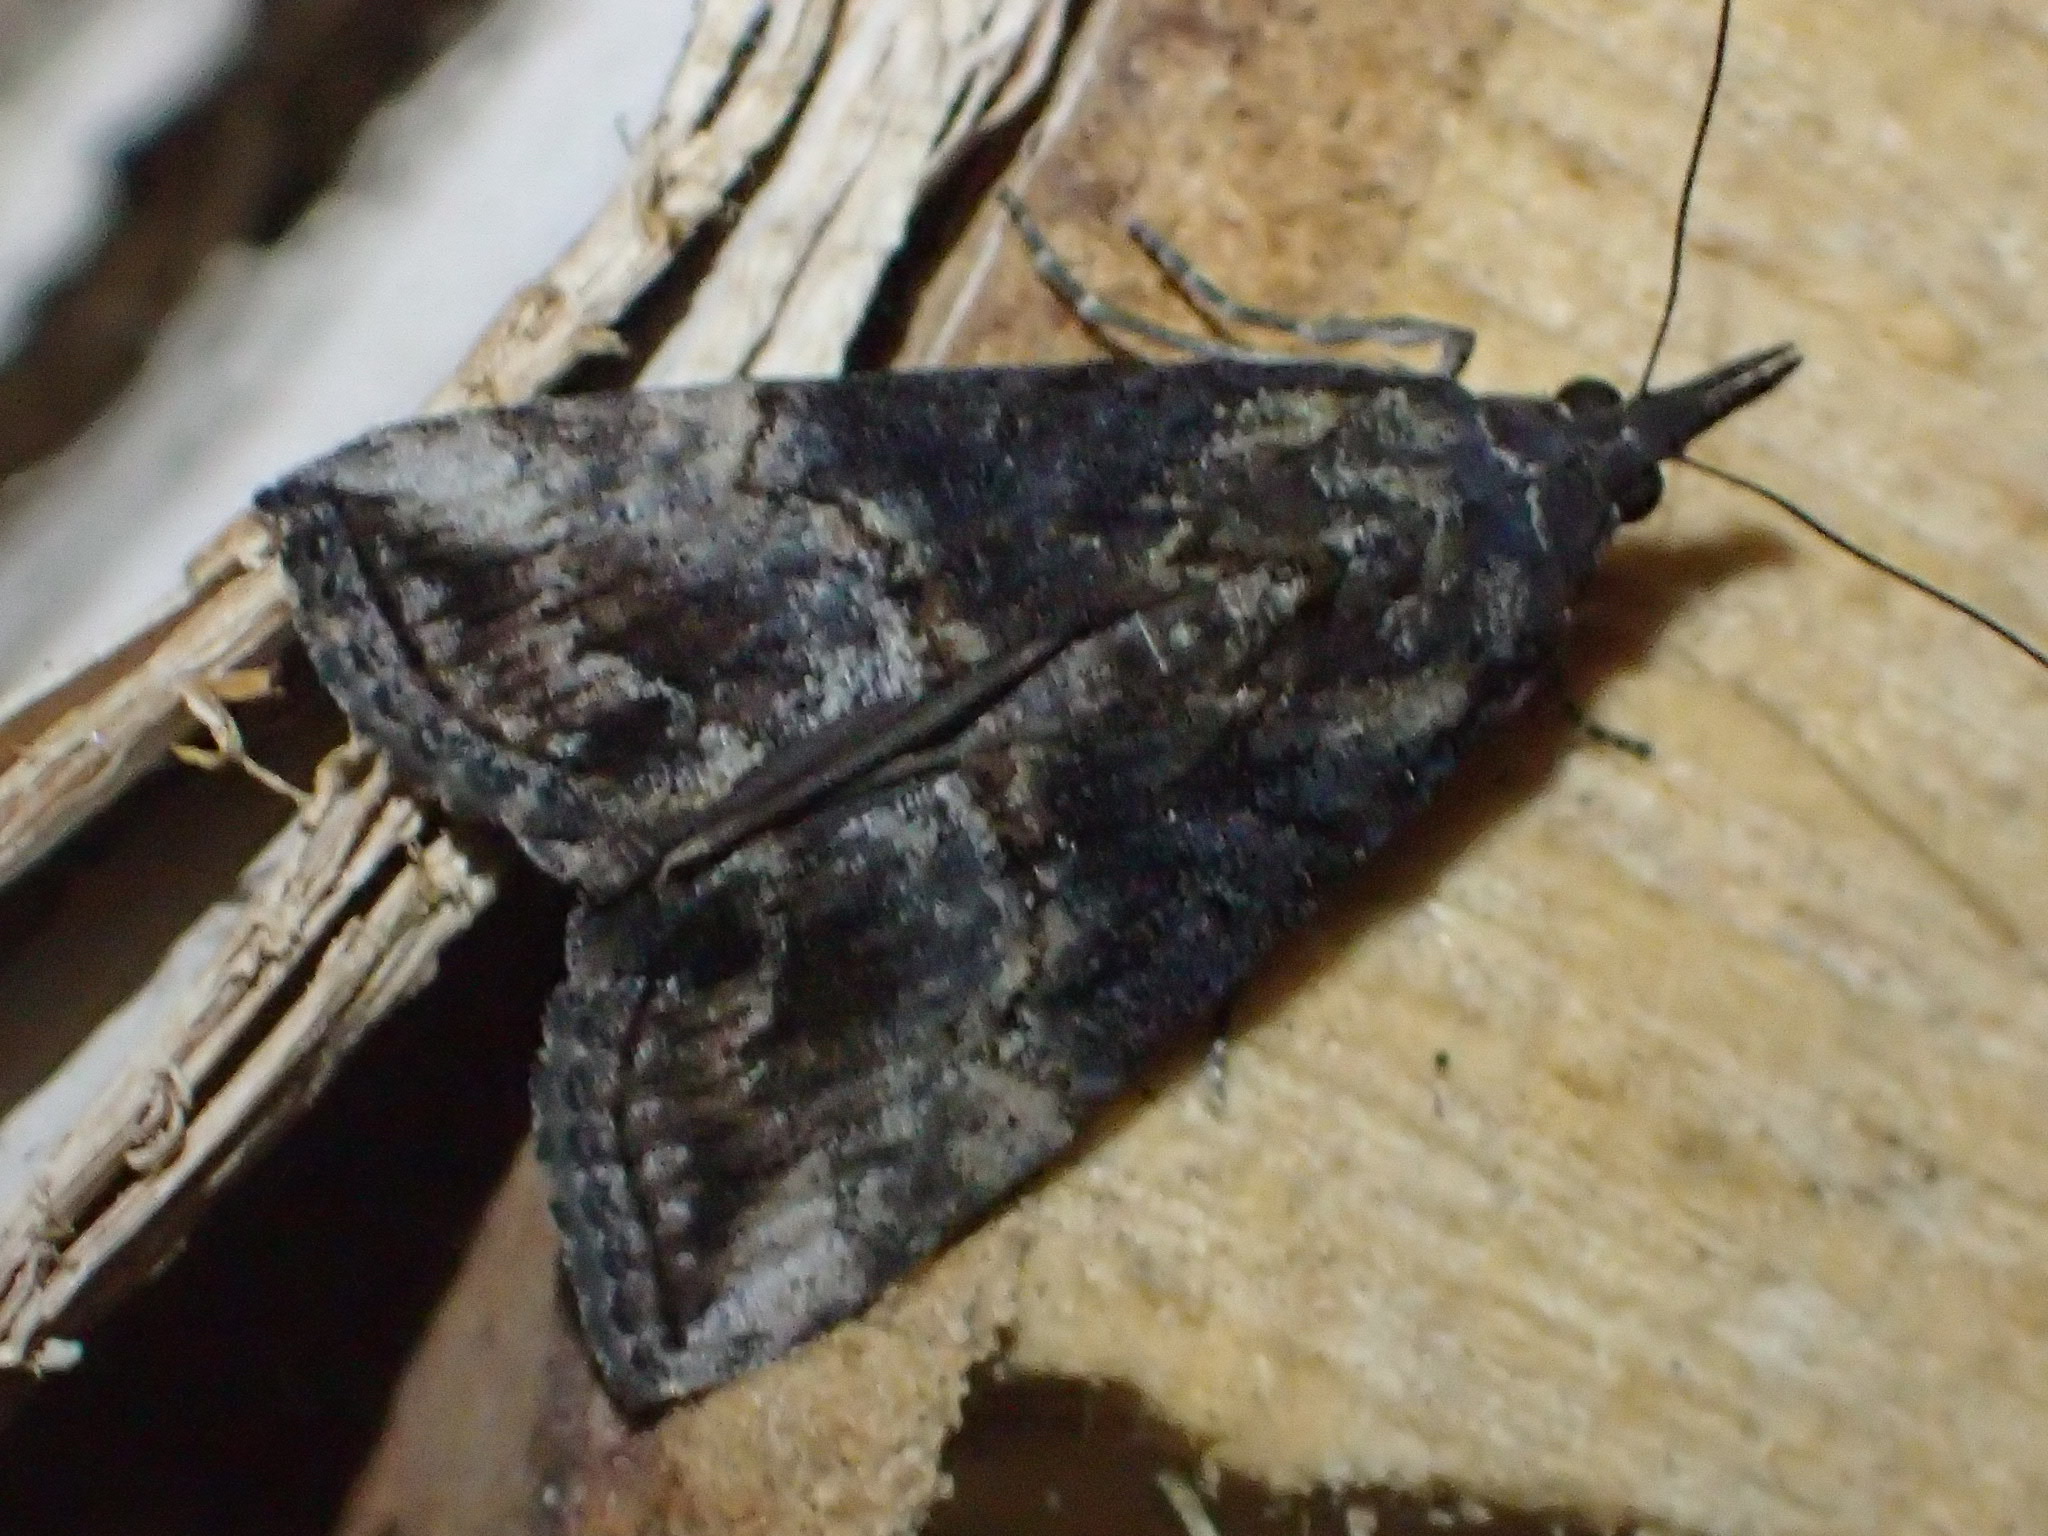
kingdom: Animalia
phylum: Arthropoda
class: Insecta
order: Lepidoptera
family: Erebidae
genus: Hypena
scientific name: Hypena scabra
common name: Green cloverworm
